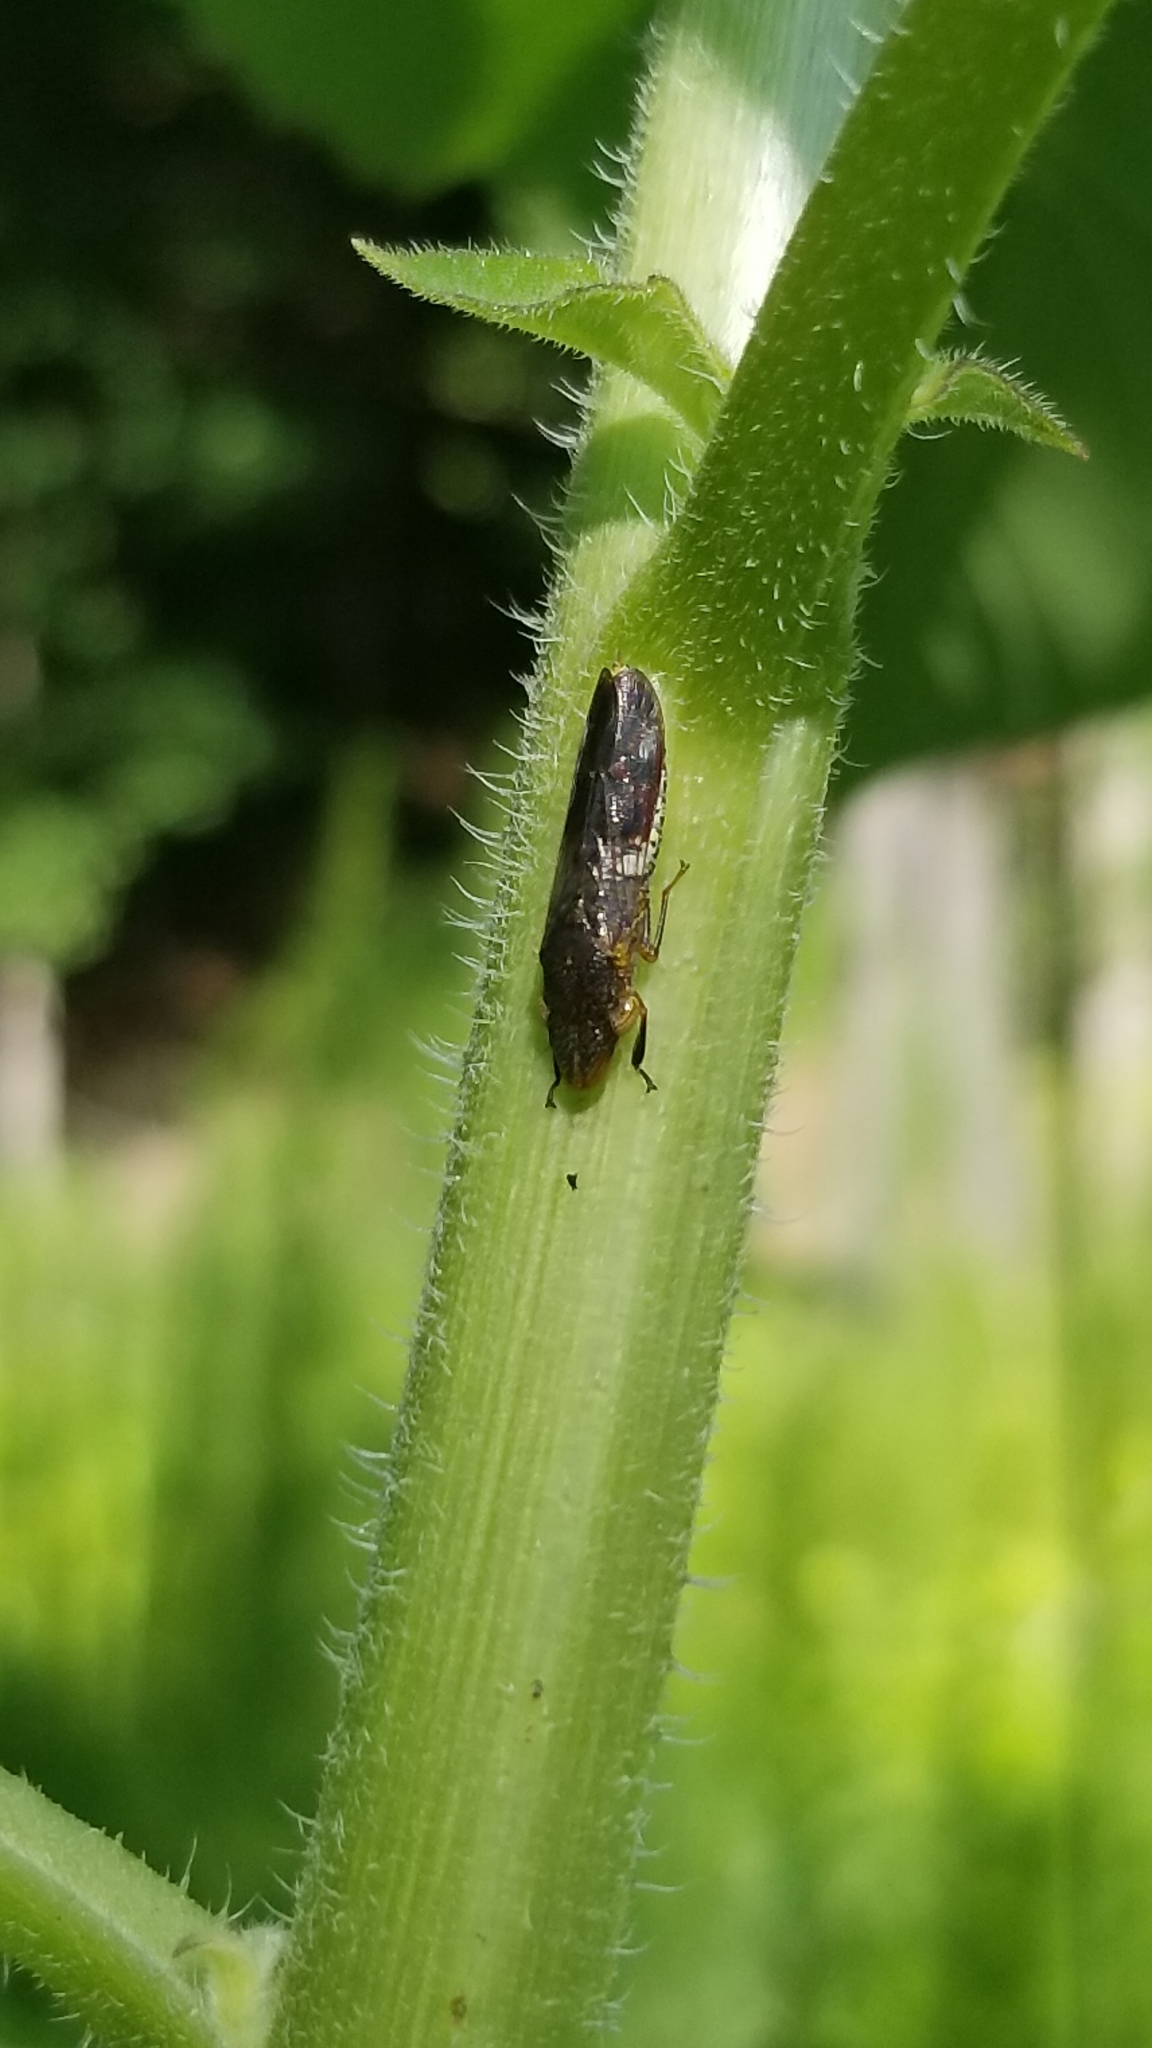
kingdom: Animalia
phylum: Arthropoda
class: Insecta
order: Hemiptera
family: Cicadellidae
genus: Homalodisca
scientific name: Homalodisca vitripennis
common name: Glassy-winged sharpshooter
